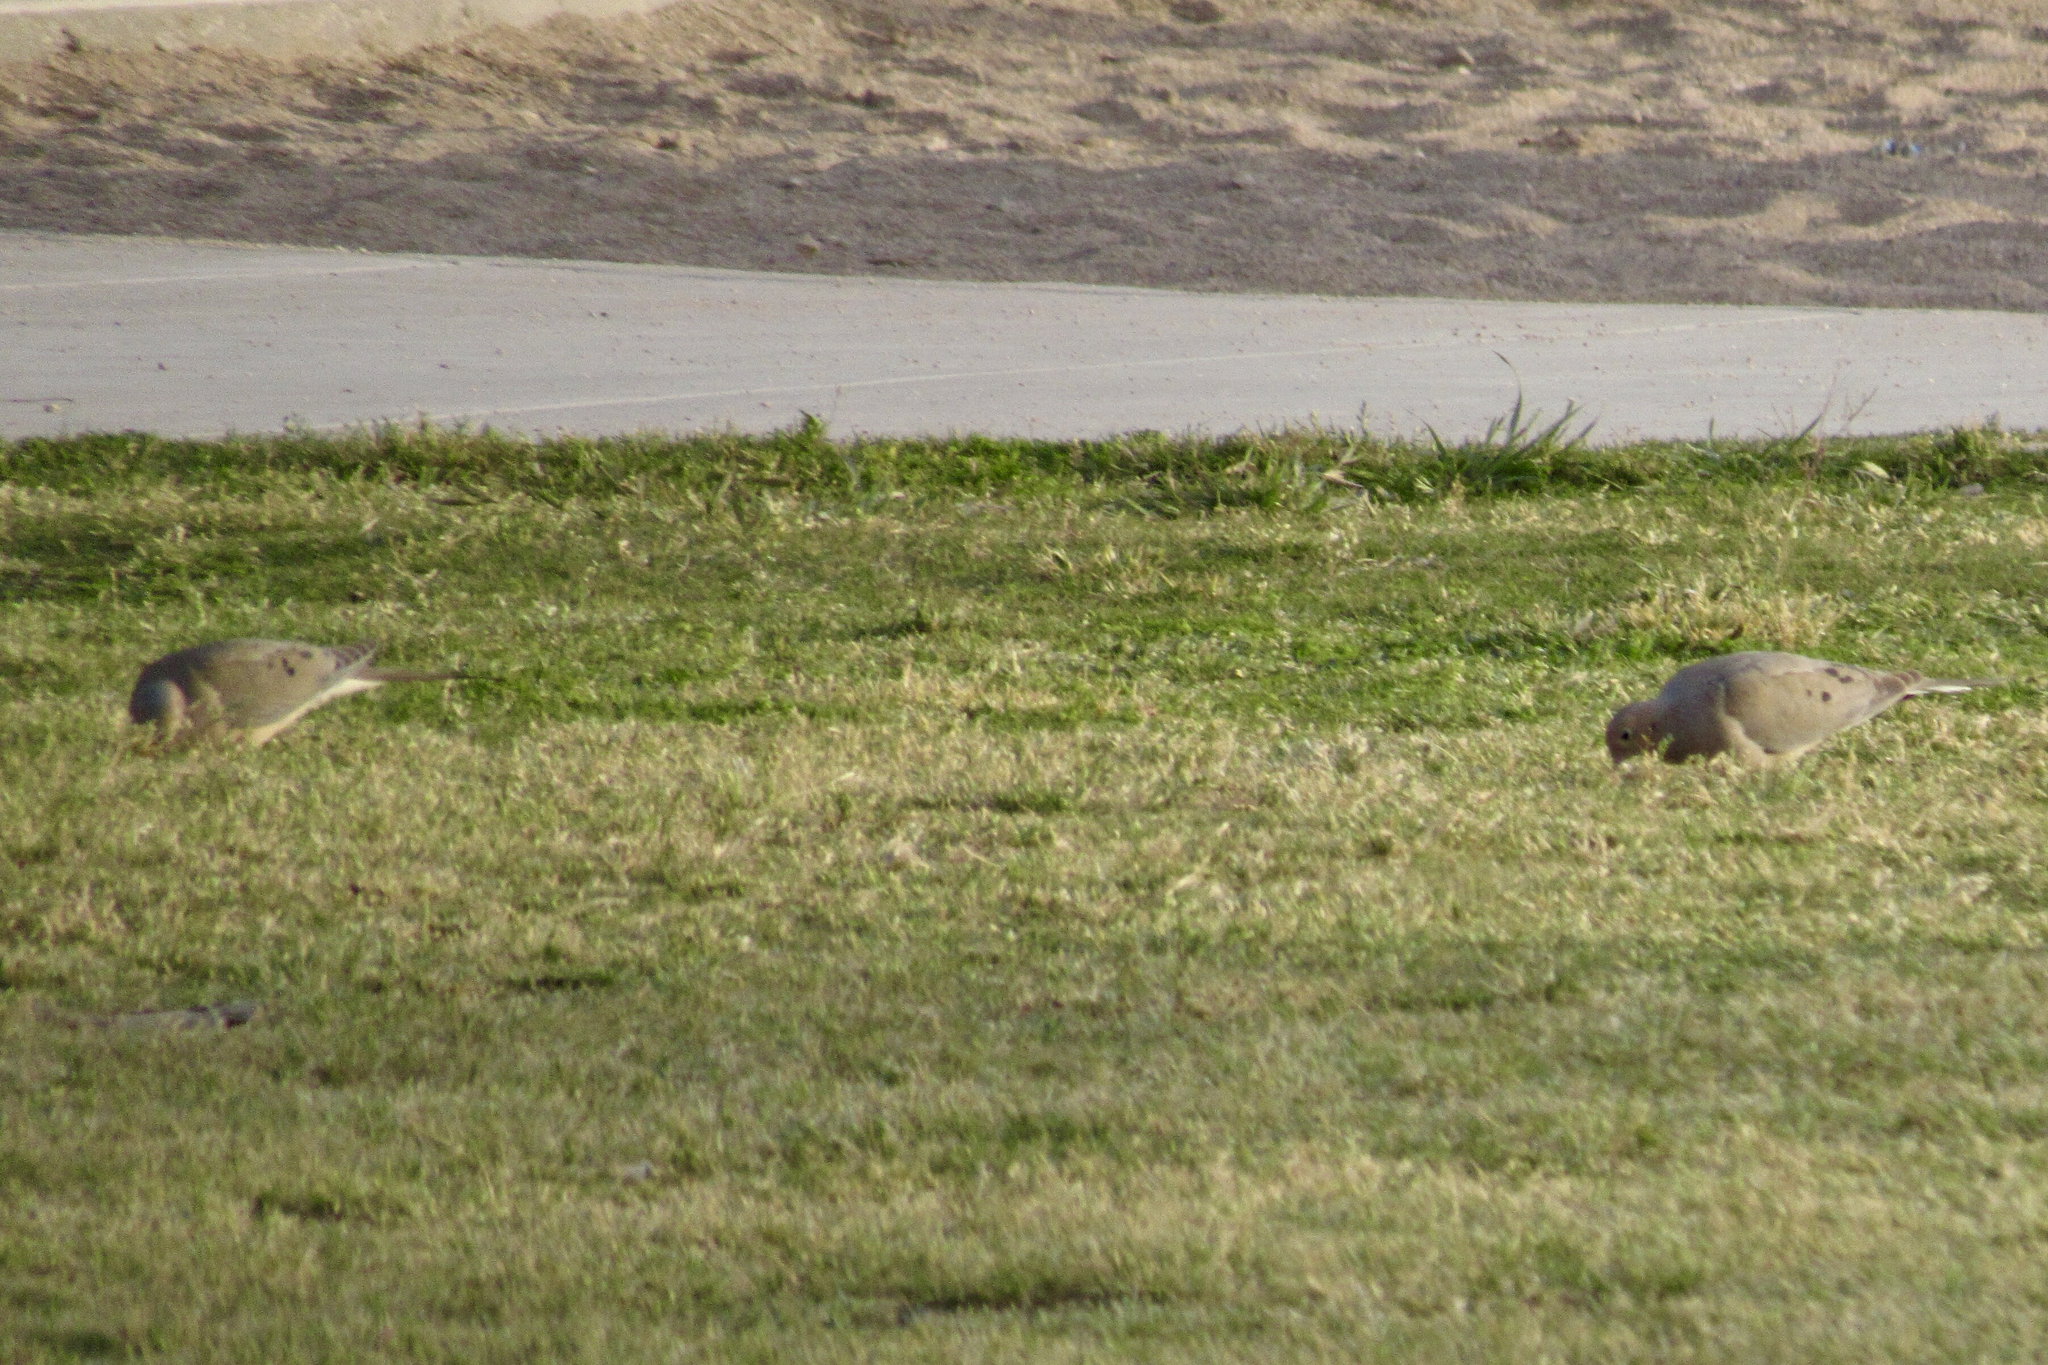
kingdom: Animalia
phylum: Chordata
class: Aves
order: Columbiformes
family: Columbidae
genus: Zenaida
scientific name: Zenaida macroura
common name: Mourning dove
